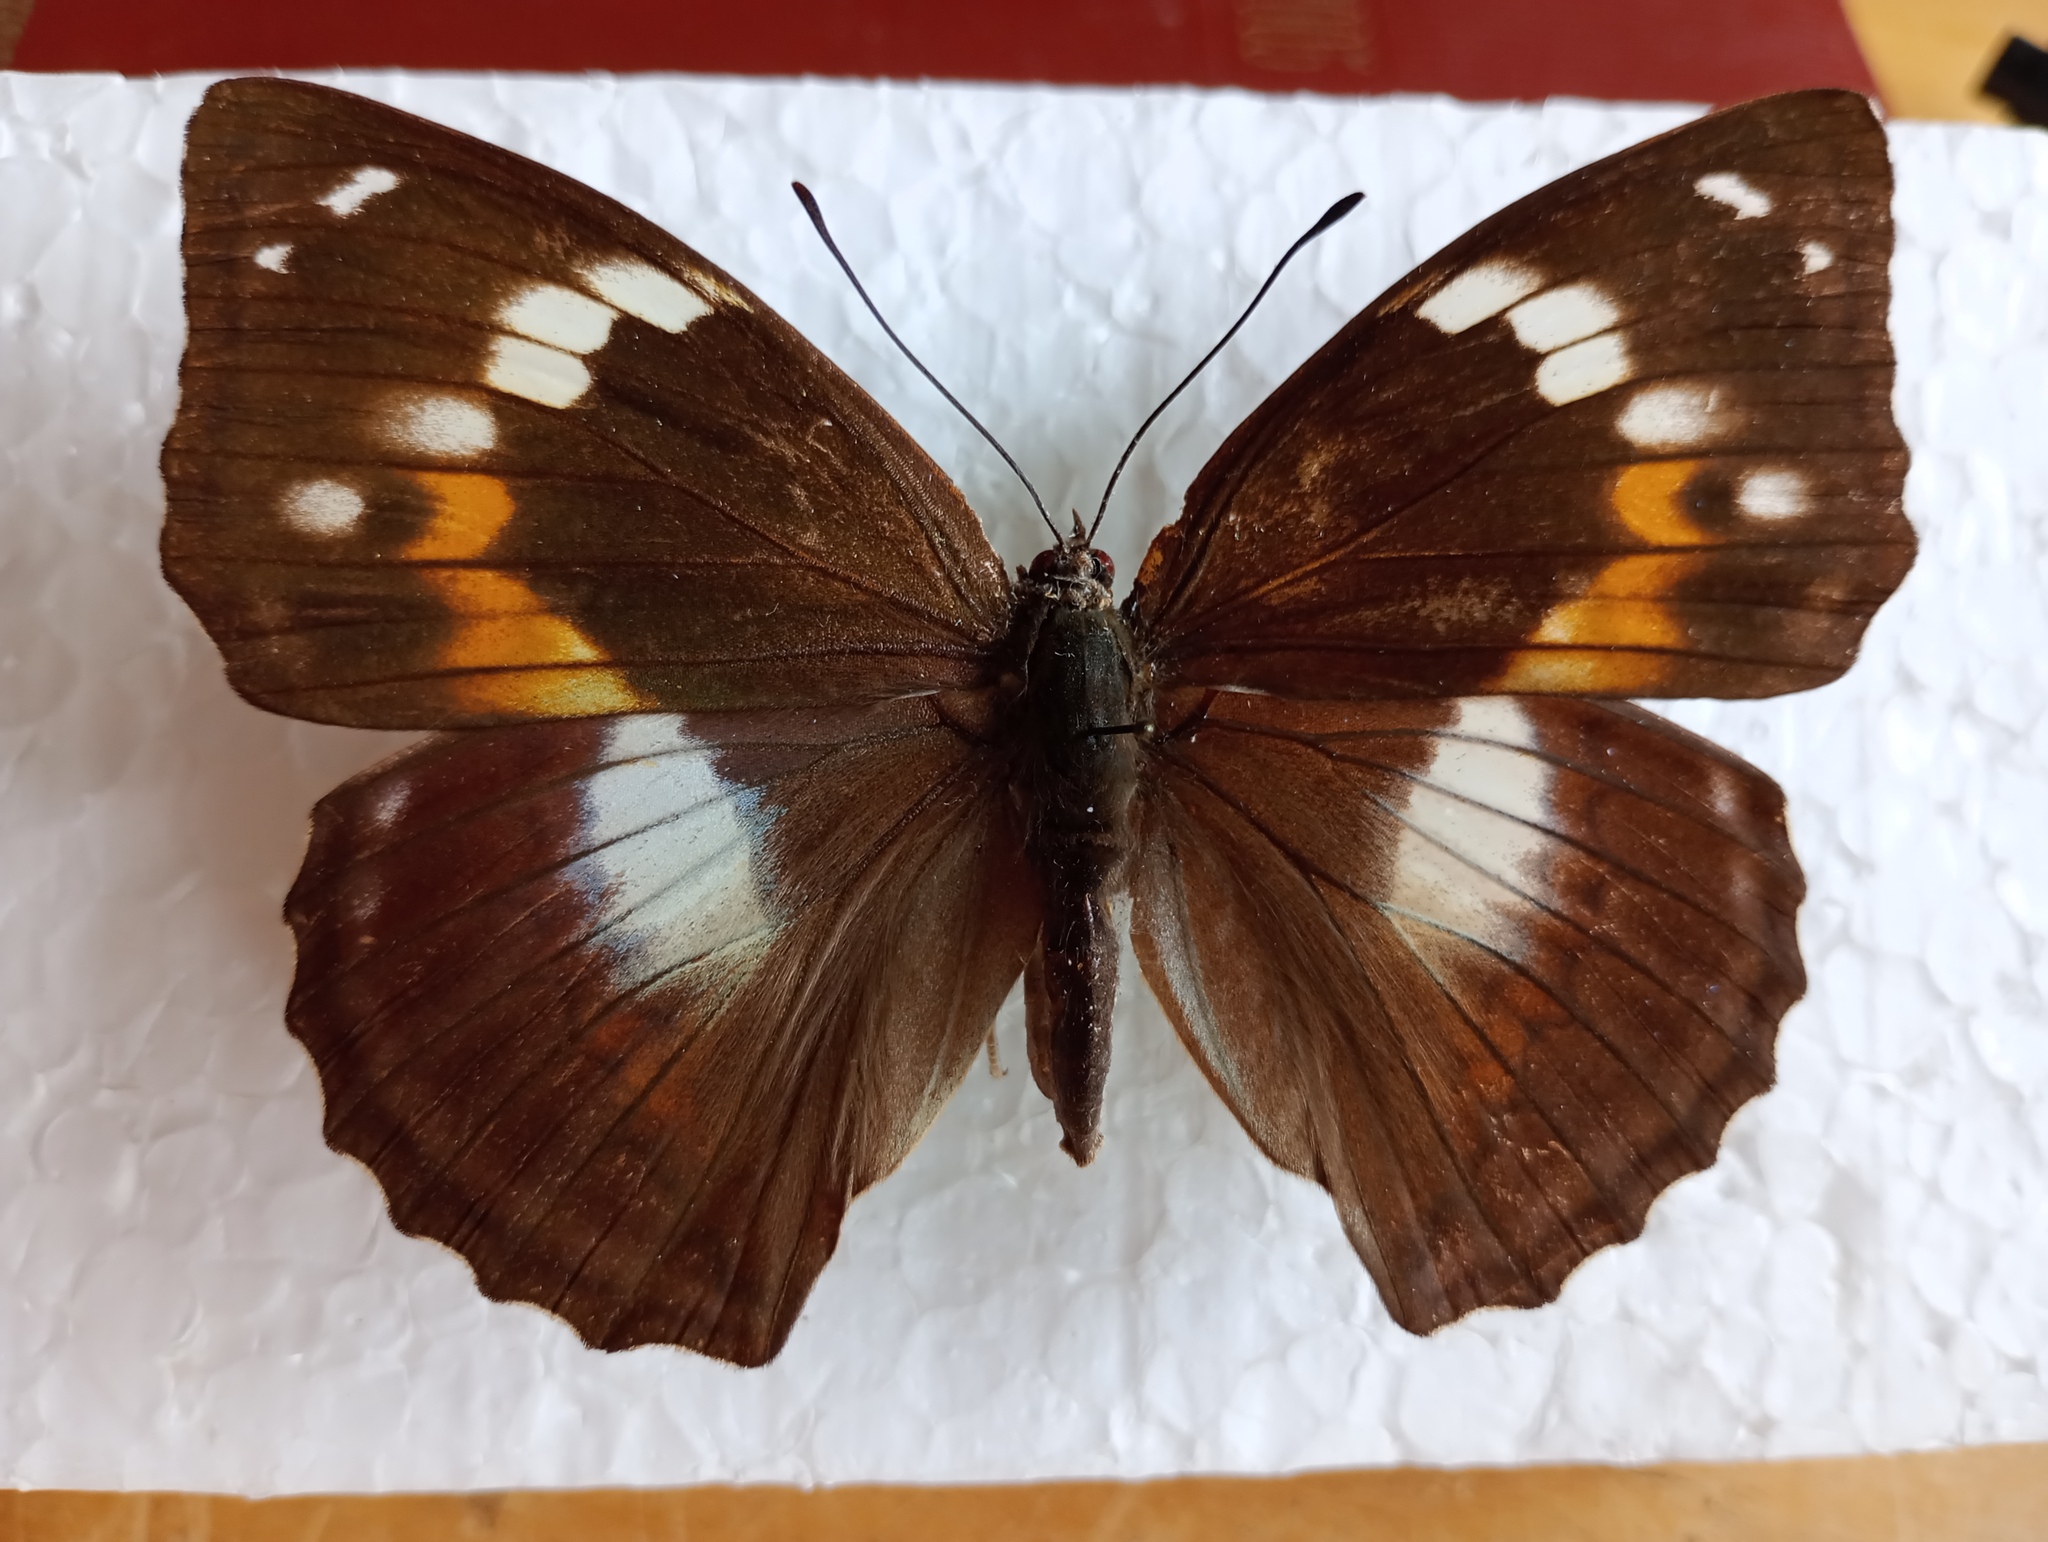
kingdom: Animalia
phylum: Arthropoda
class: Insecta
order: Lepidoptera
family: Nymphalidae
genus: Apatura
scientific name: Apatura Mimathyma schrencki
